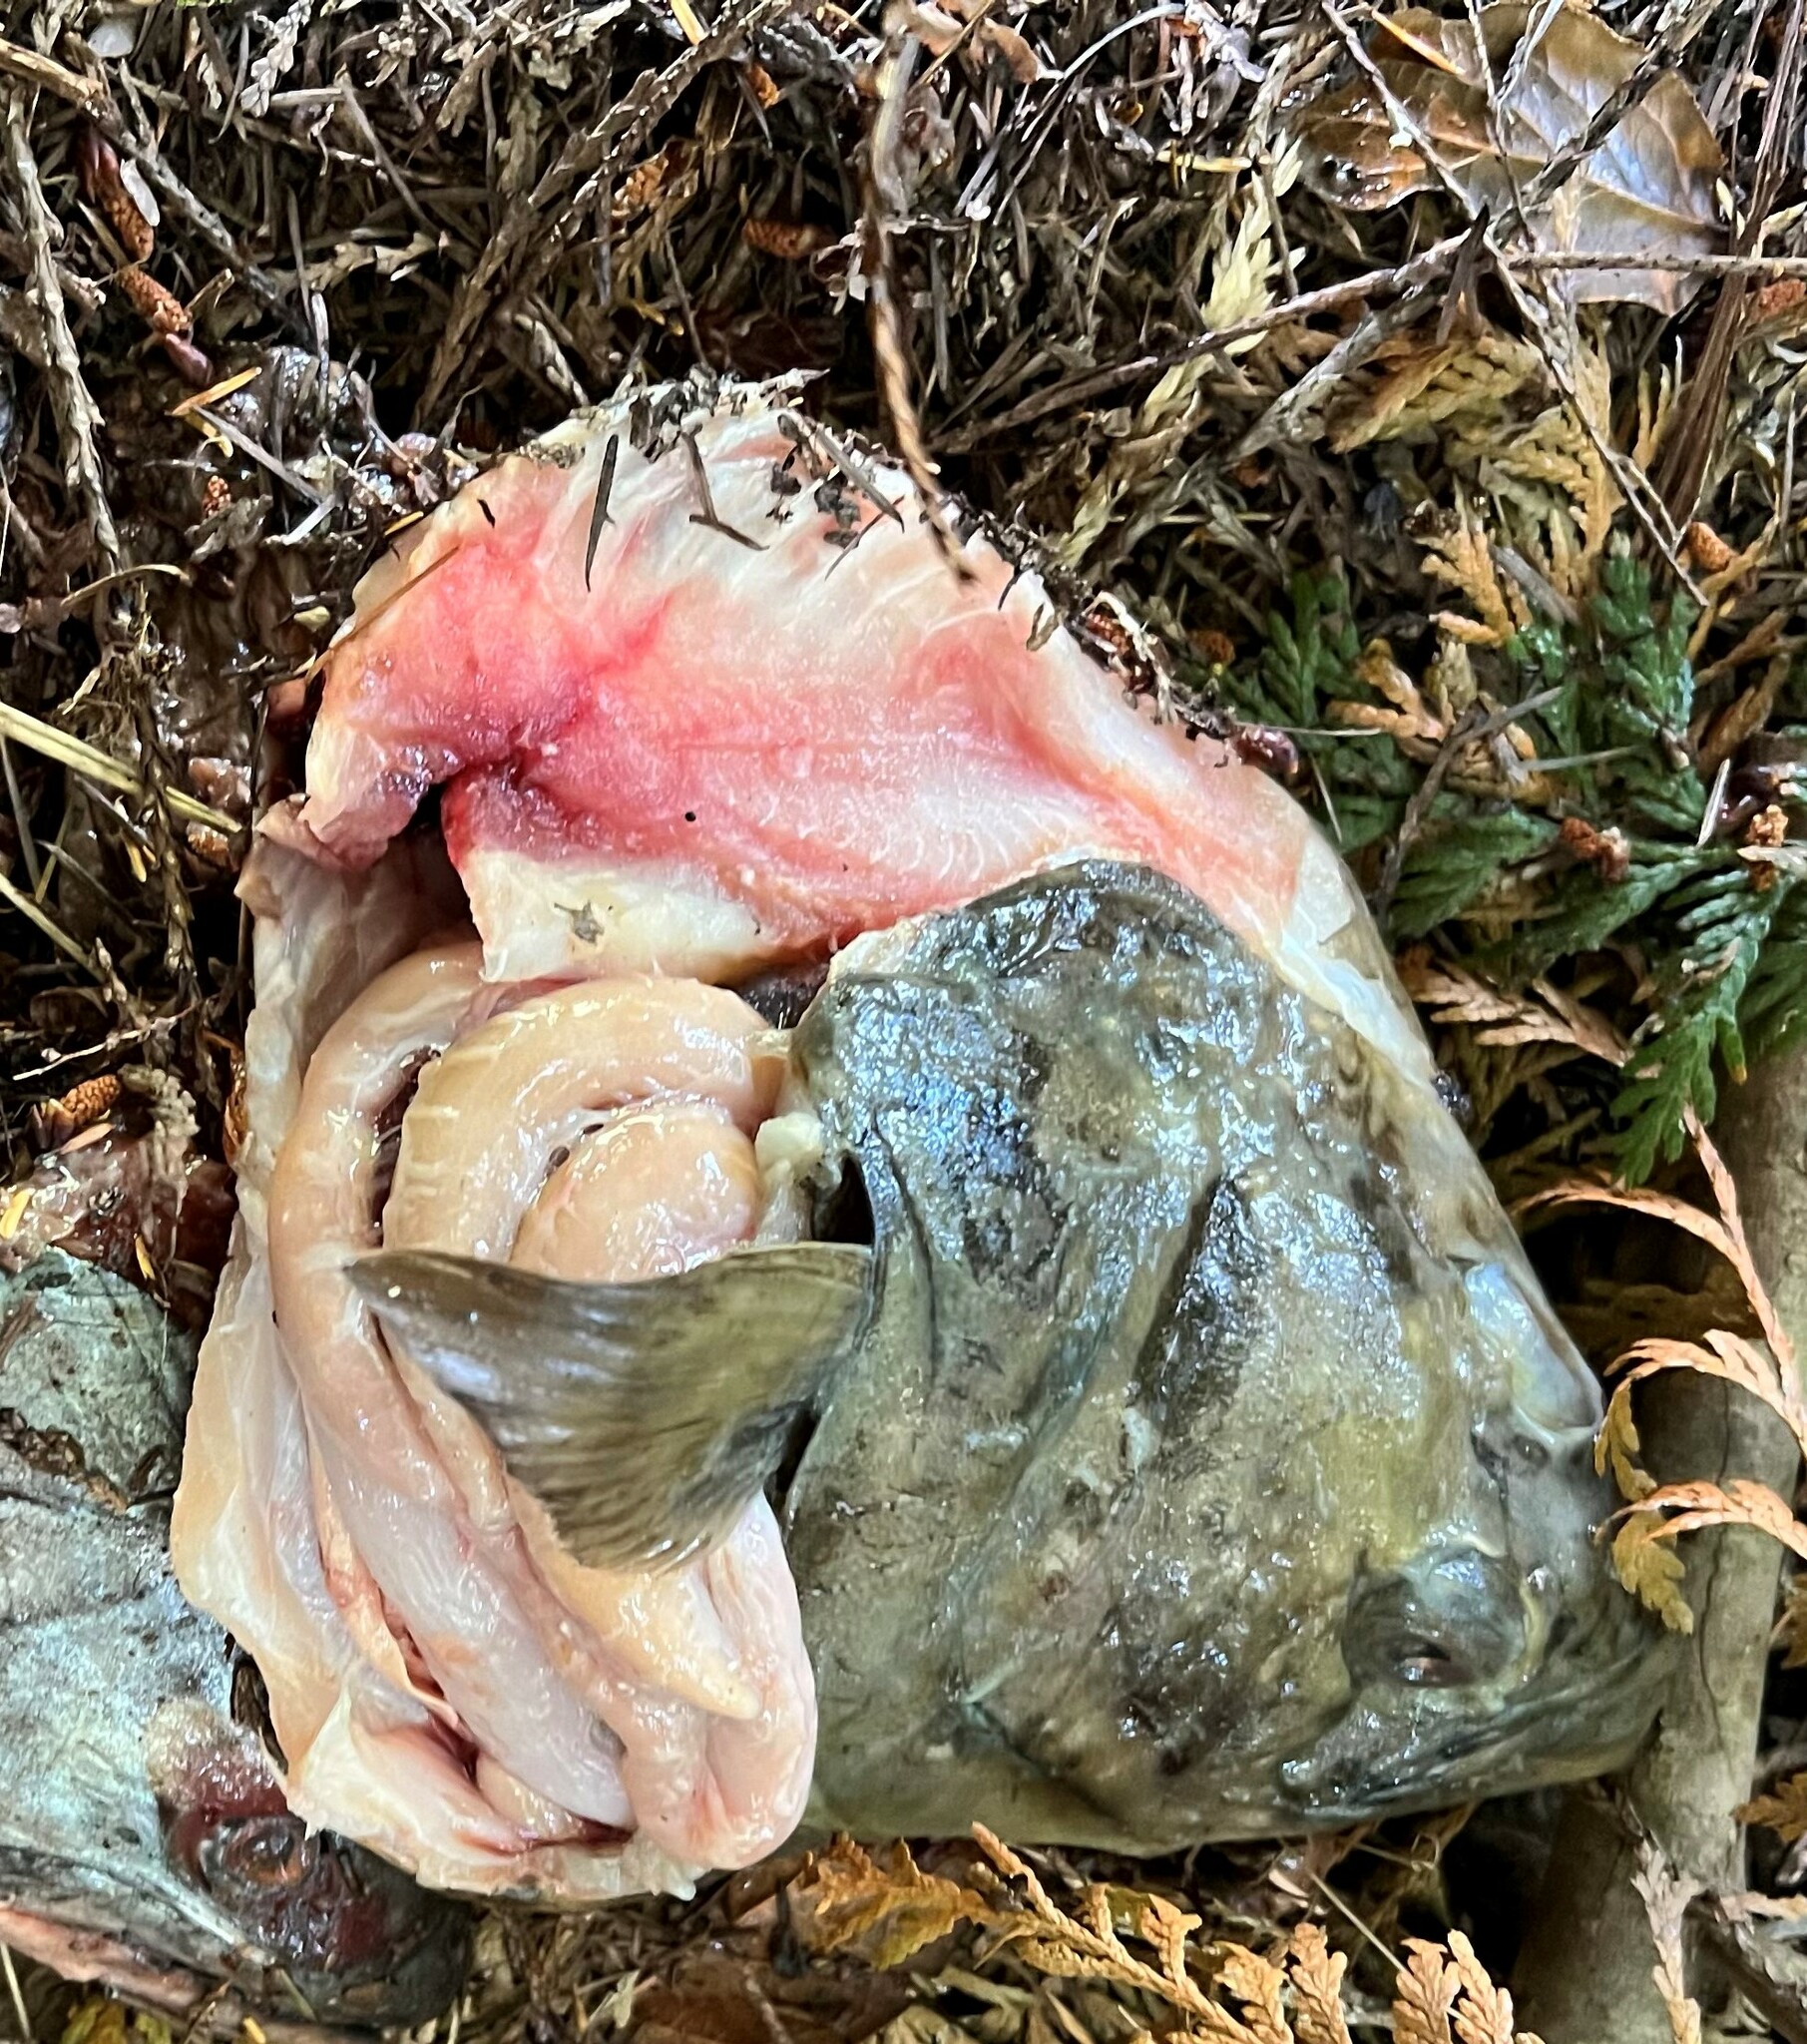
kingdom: Animalia
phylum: Chordata
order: Pleuronectiformes
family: Pleuronectidae
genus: Hippoglossus
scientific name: Hippoglossus stenolepis
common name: Pacific halibut
